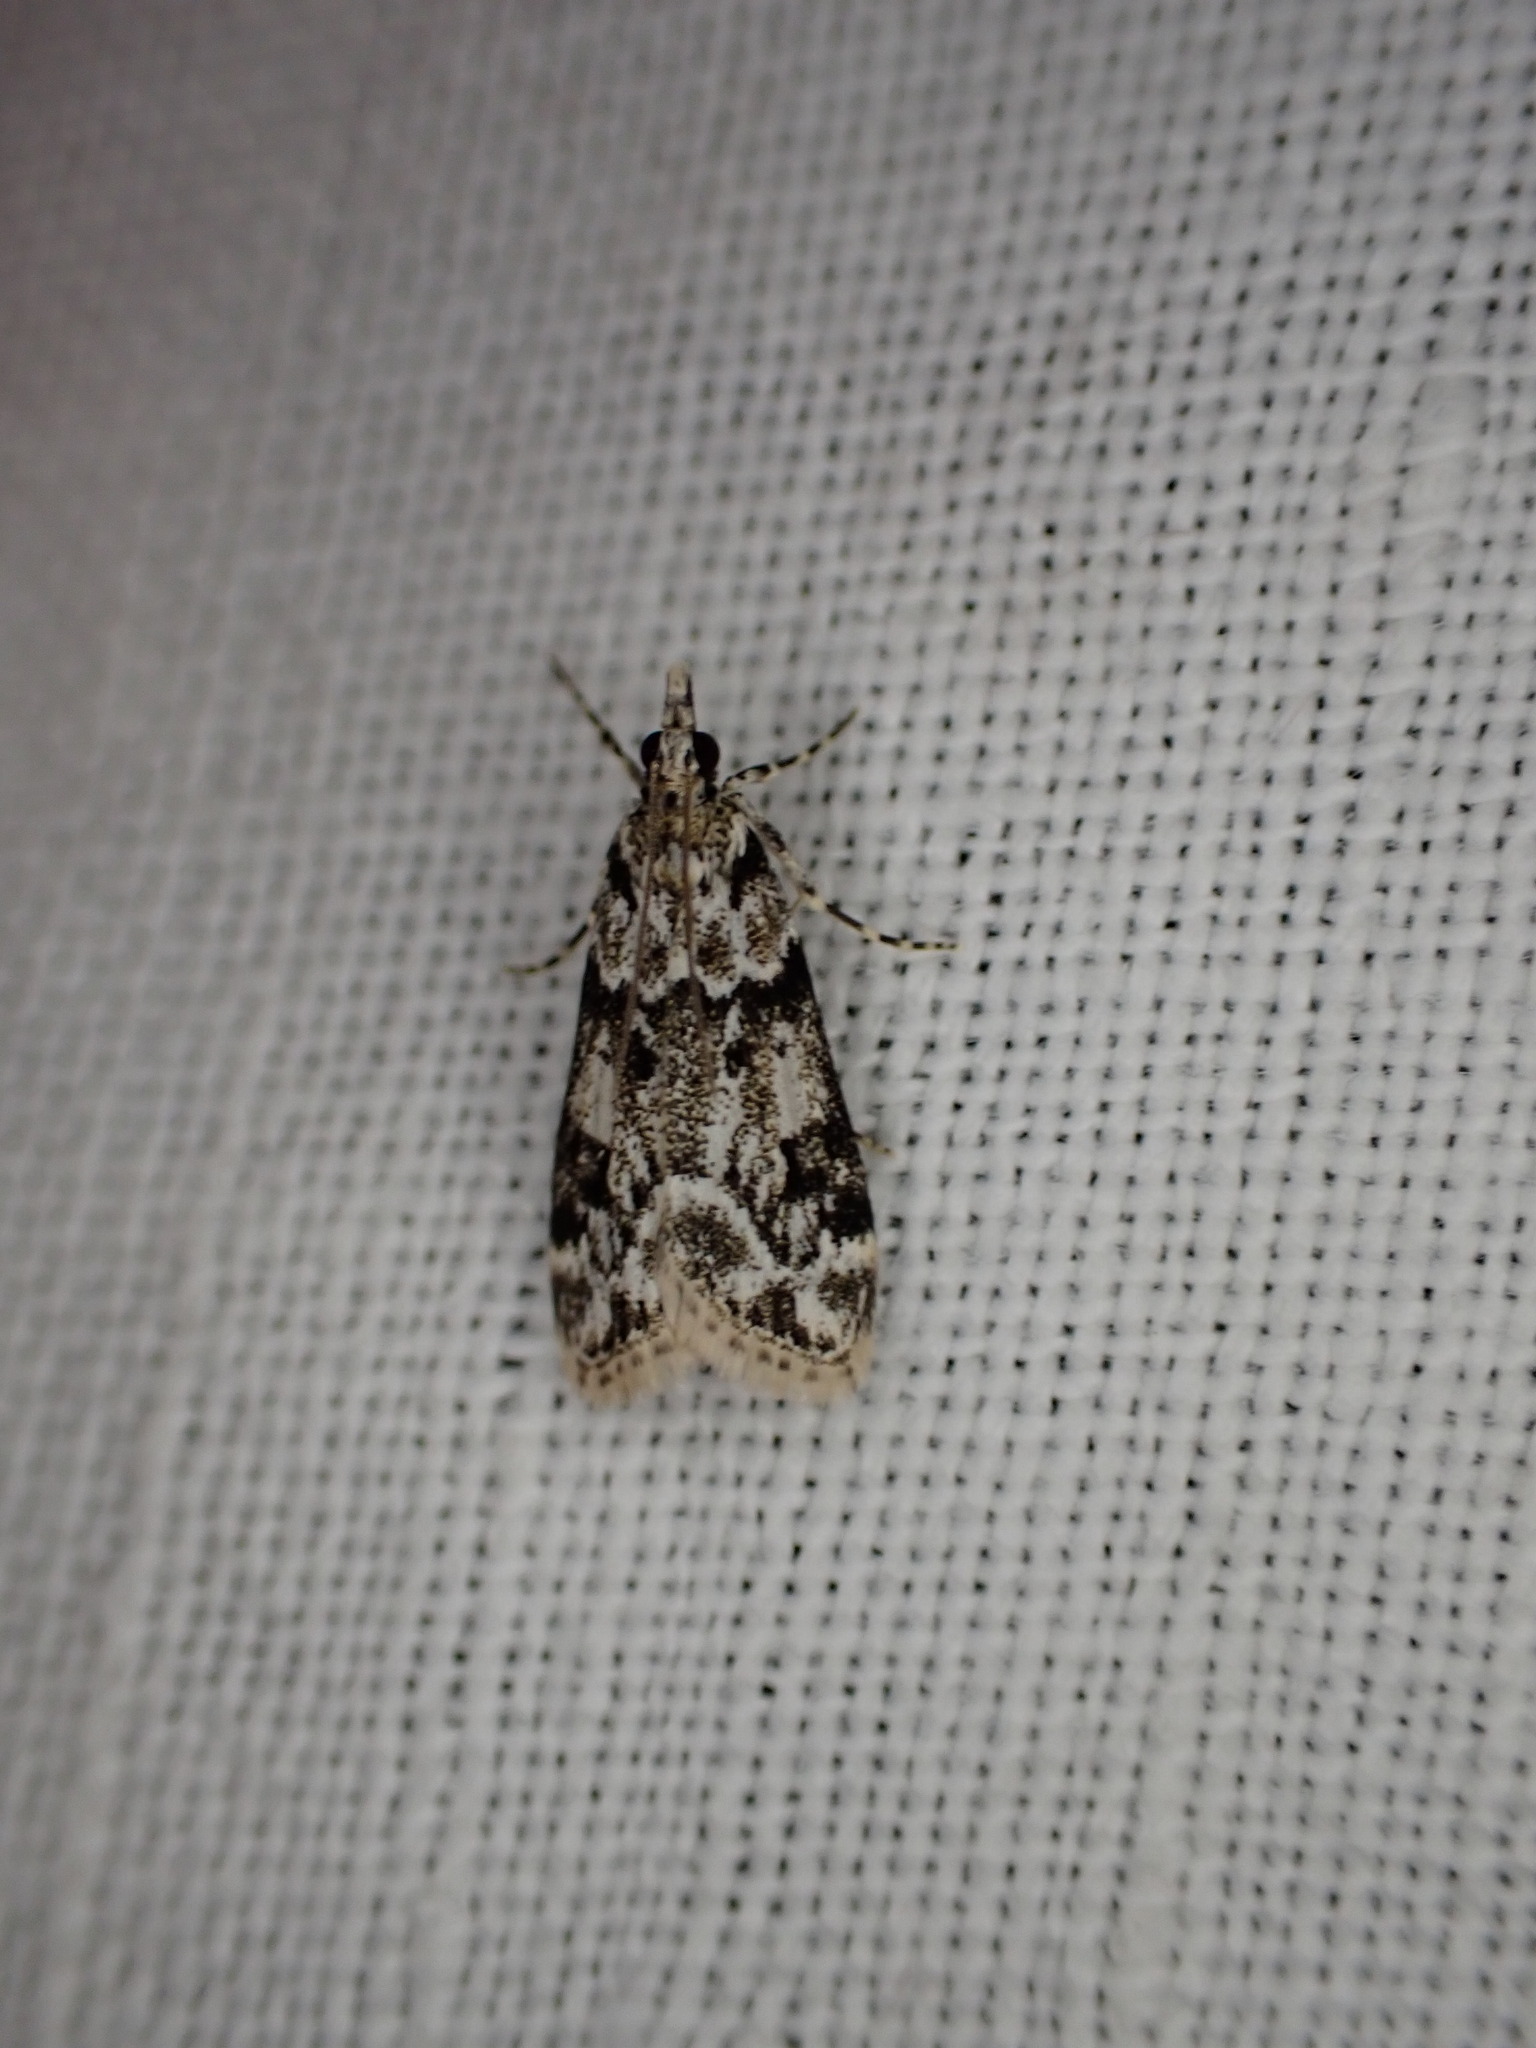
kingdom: Animalia
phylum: Arthropoda
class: Insecta
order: Lepidoptera
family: Crambidae
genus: Eudonia
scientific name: Eudonia delunella
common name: Pied grey
